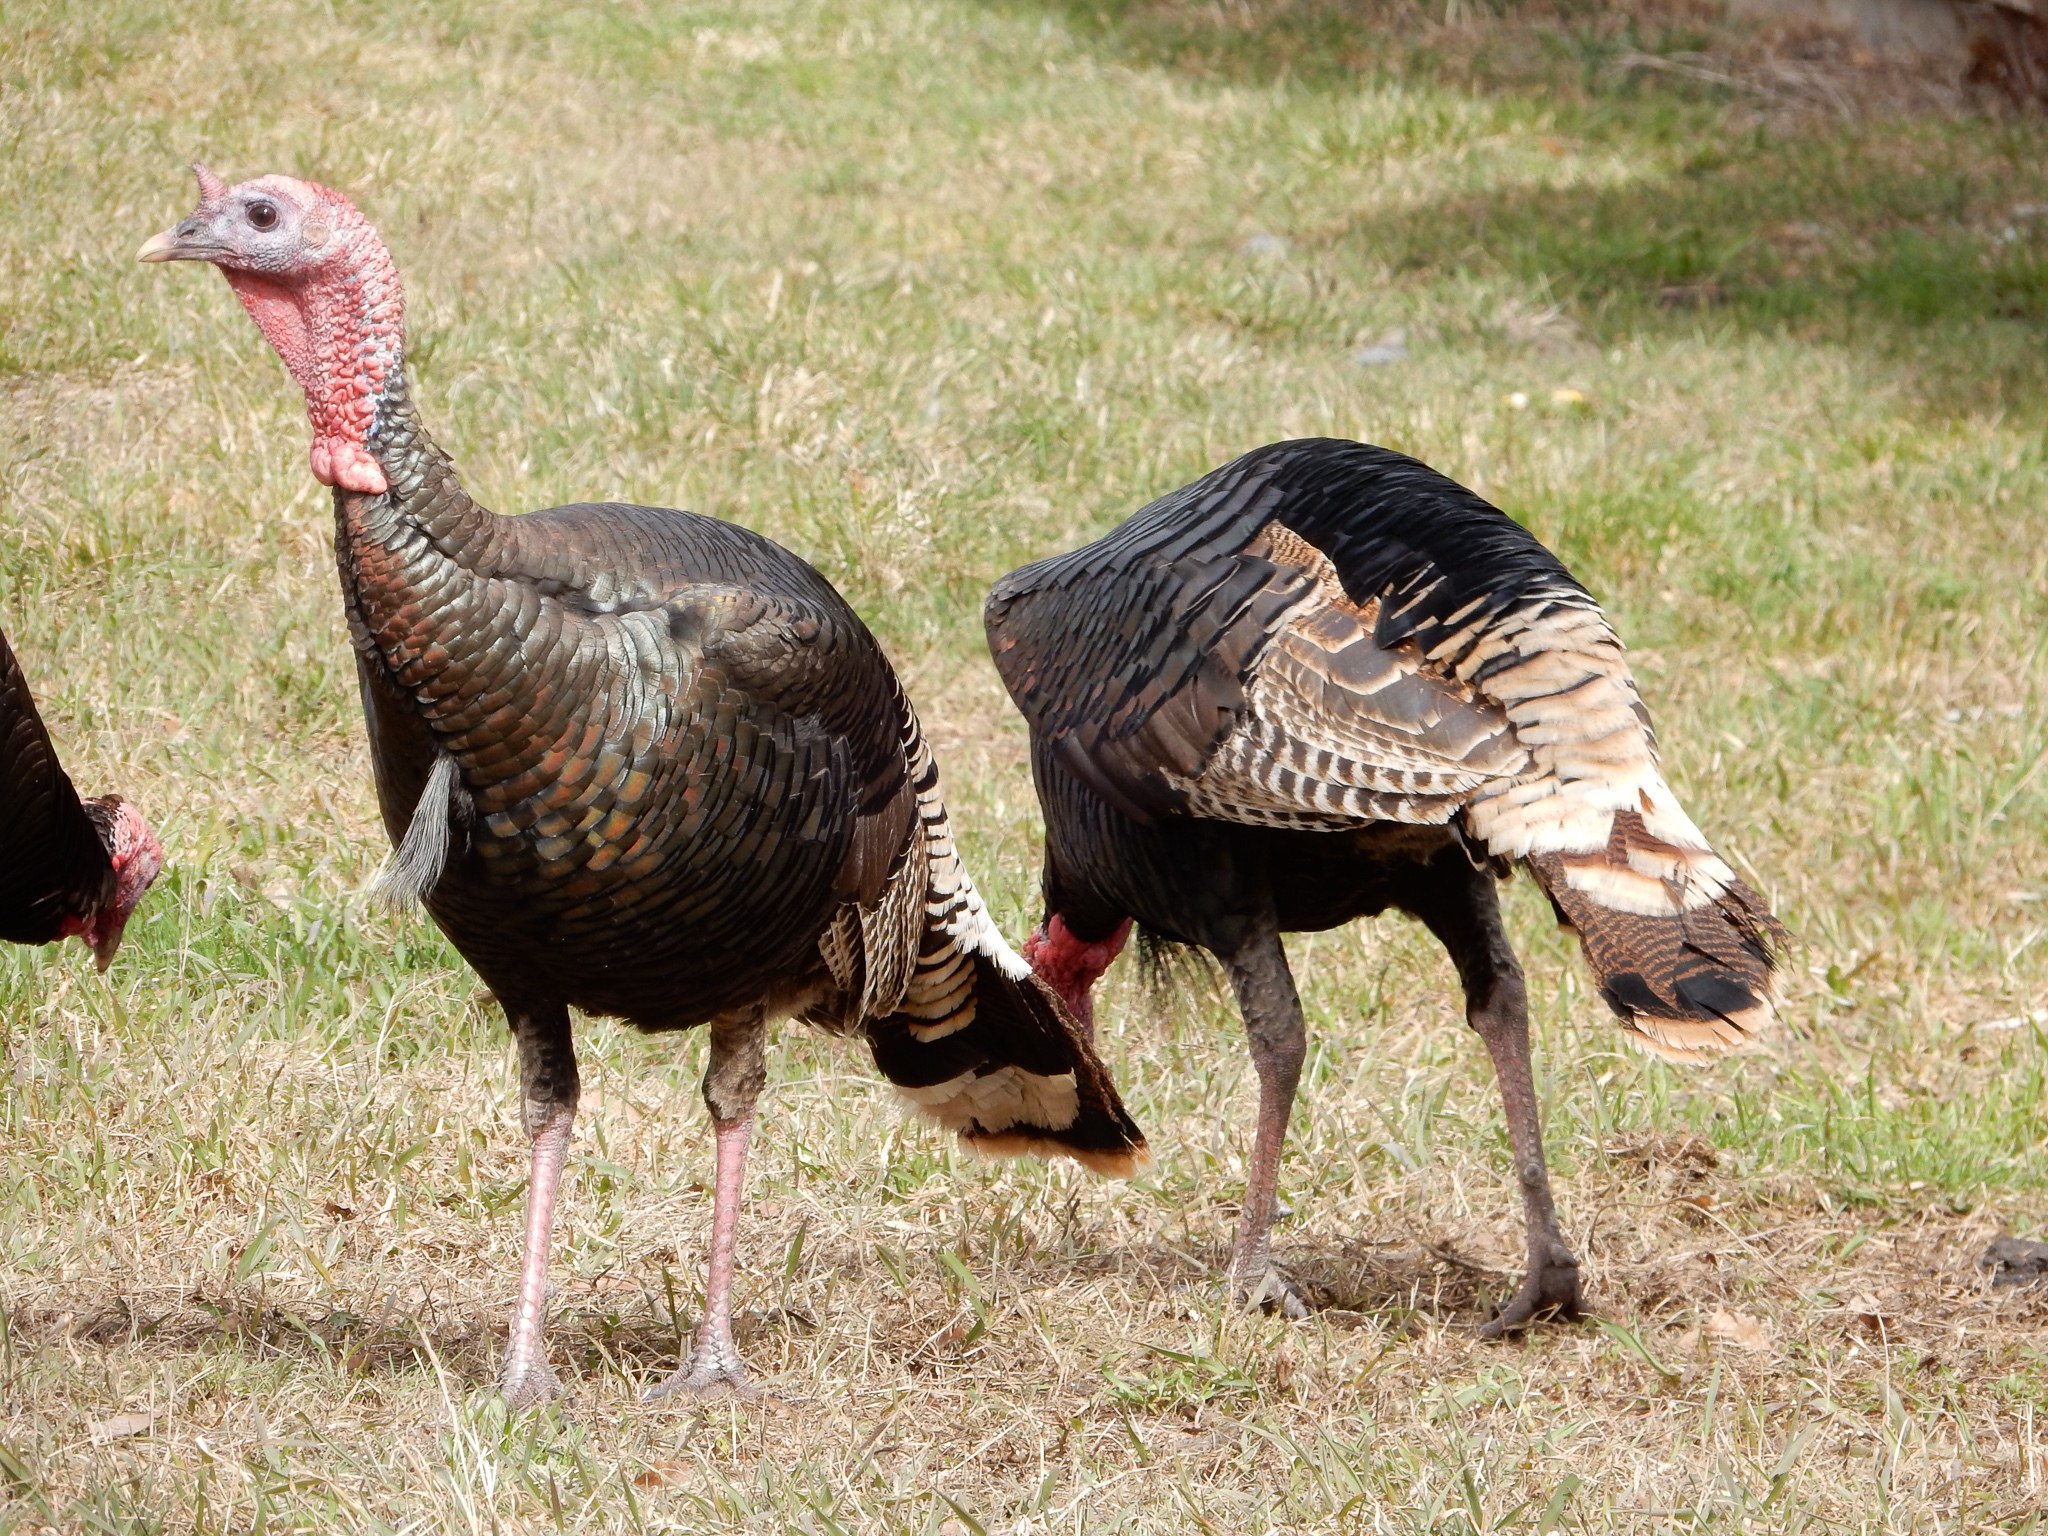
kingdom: Animalia
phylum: Chordata
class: Aves
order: Galliformes
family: Phasianidae
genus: Meleagris
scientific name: Meleagris gallopavo
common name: Wild turkey
